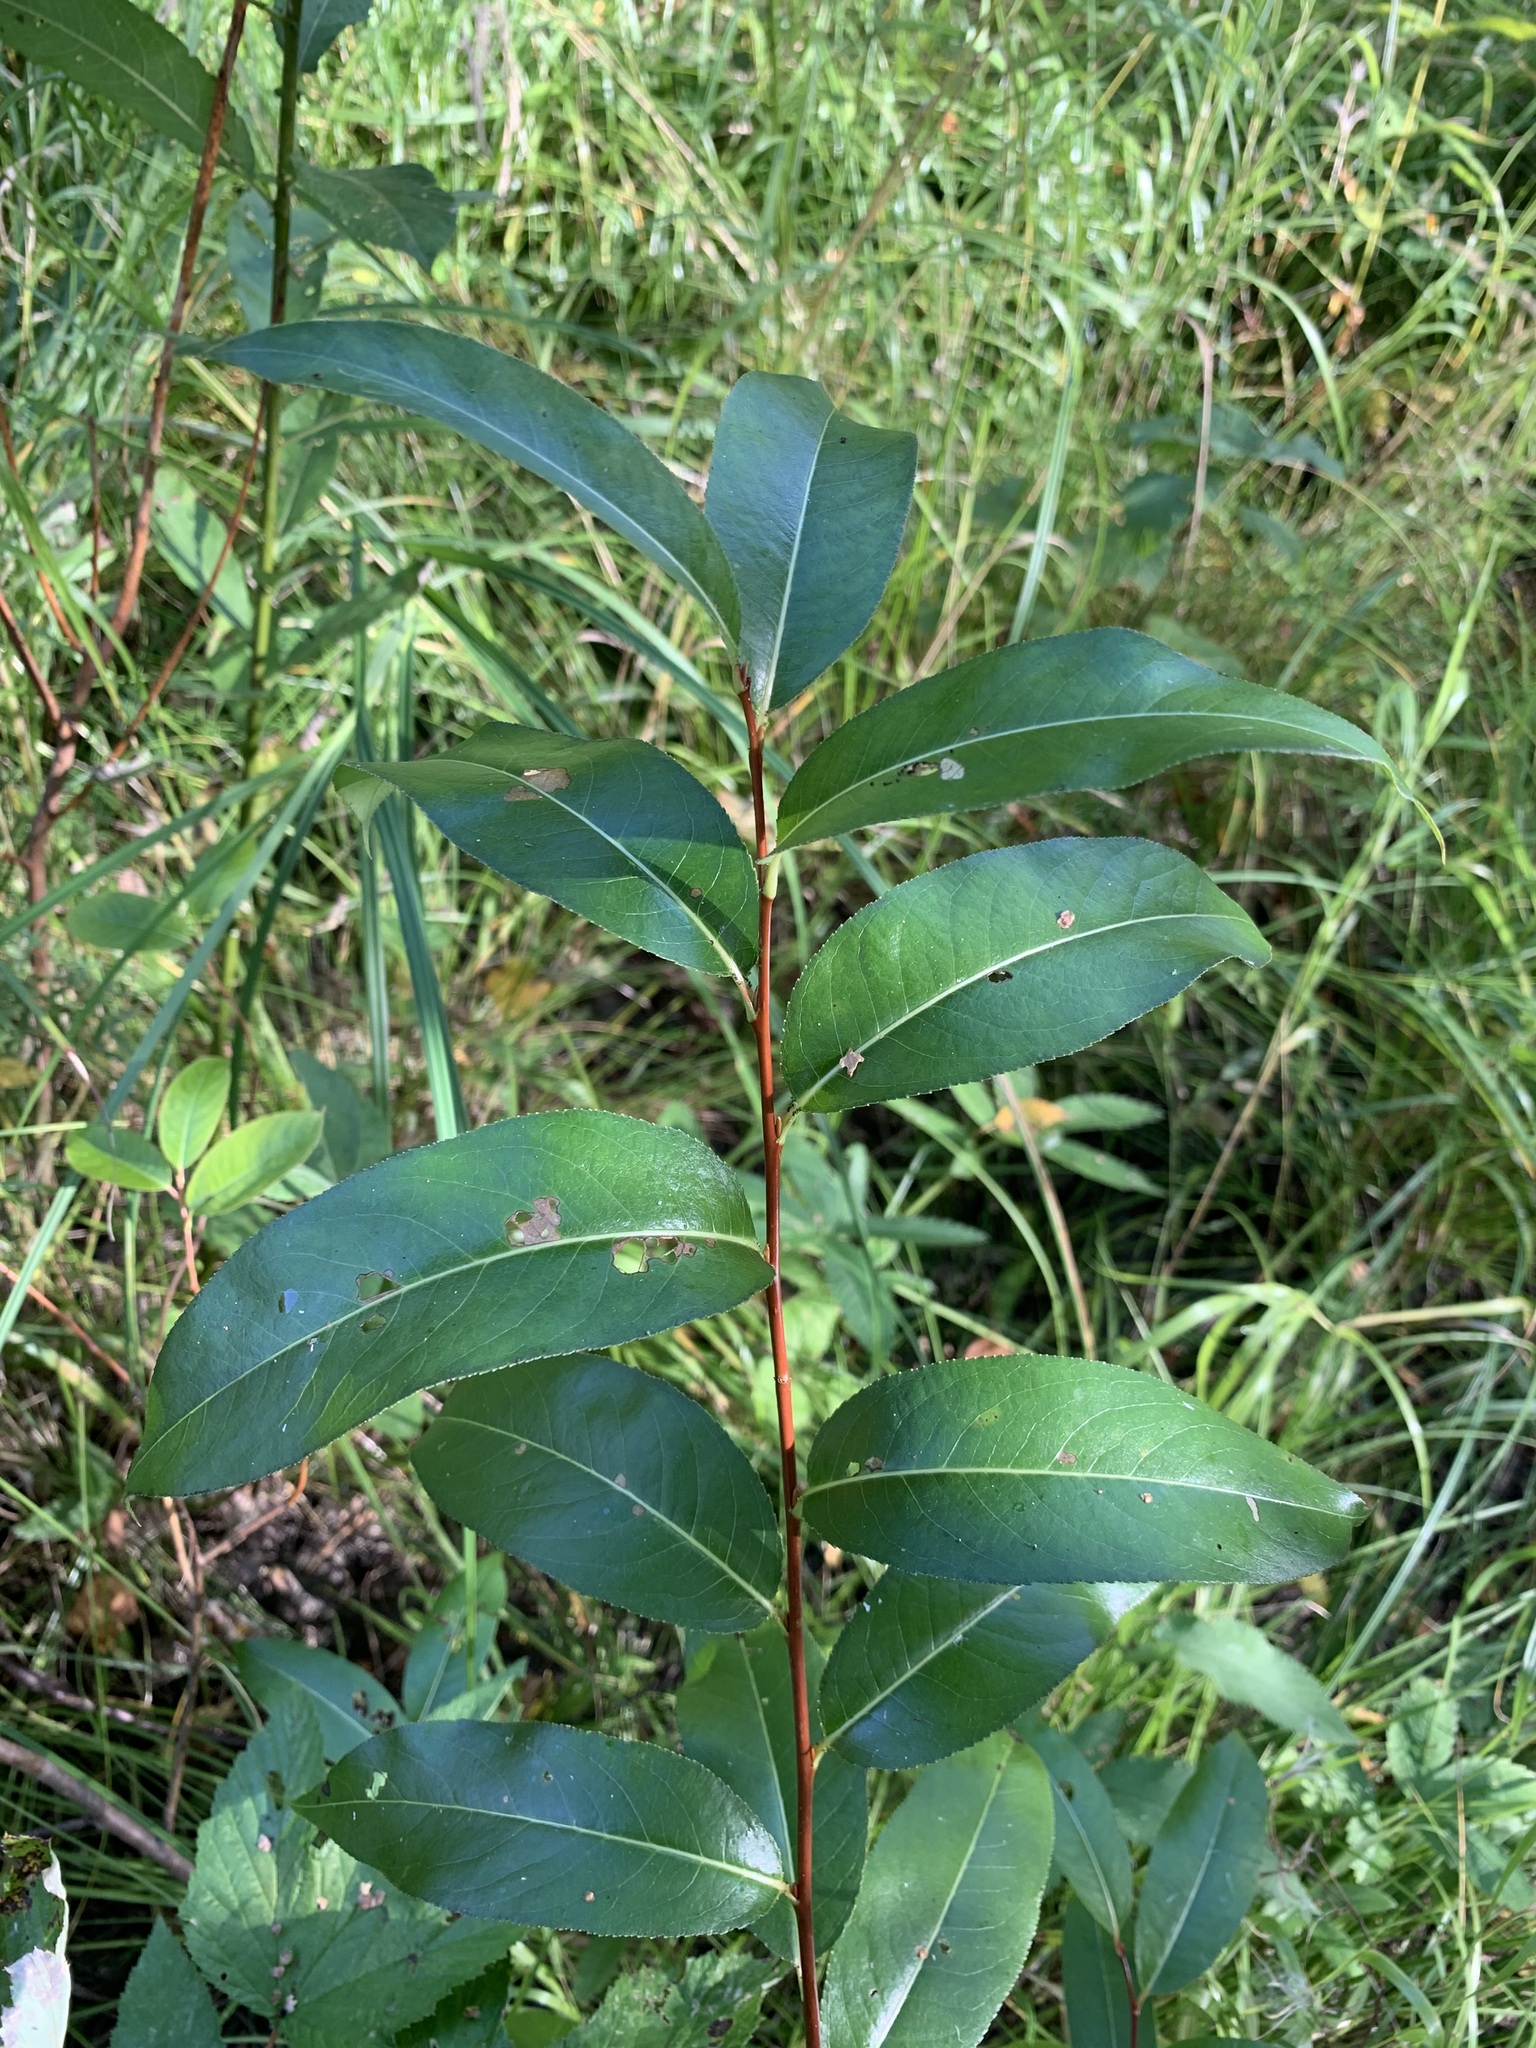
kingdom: Plantae
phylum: Tracheophyta
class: Magnoliopsida
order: Malpighiales
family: Salicaceae
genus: Salix
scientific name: Salix pentandra
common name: Bay willow
